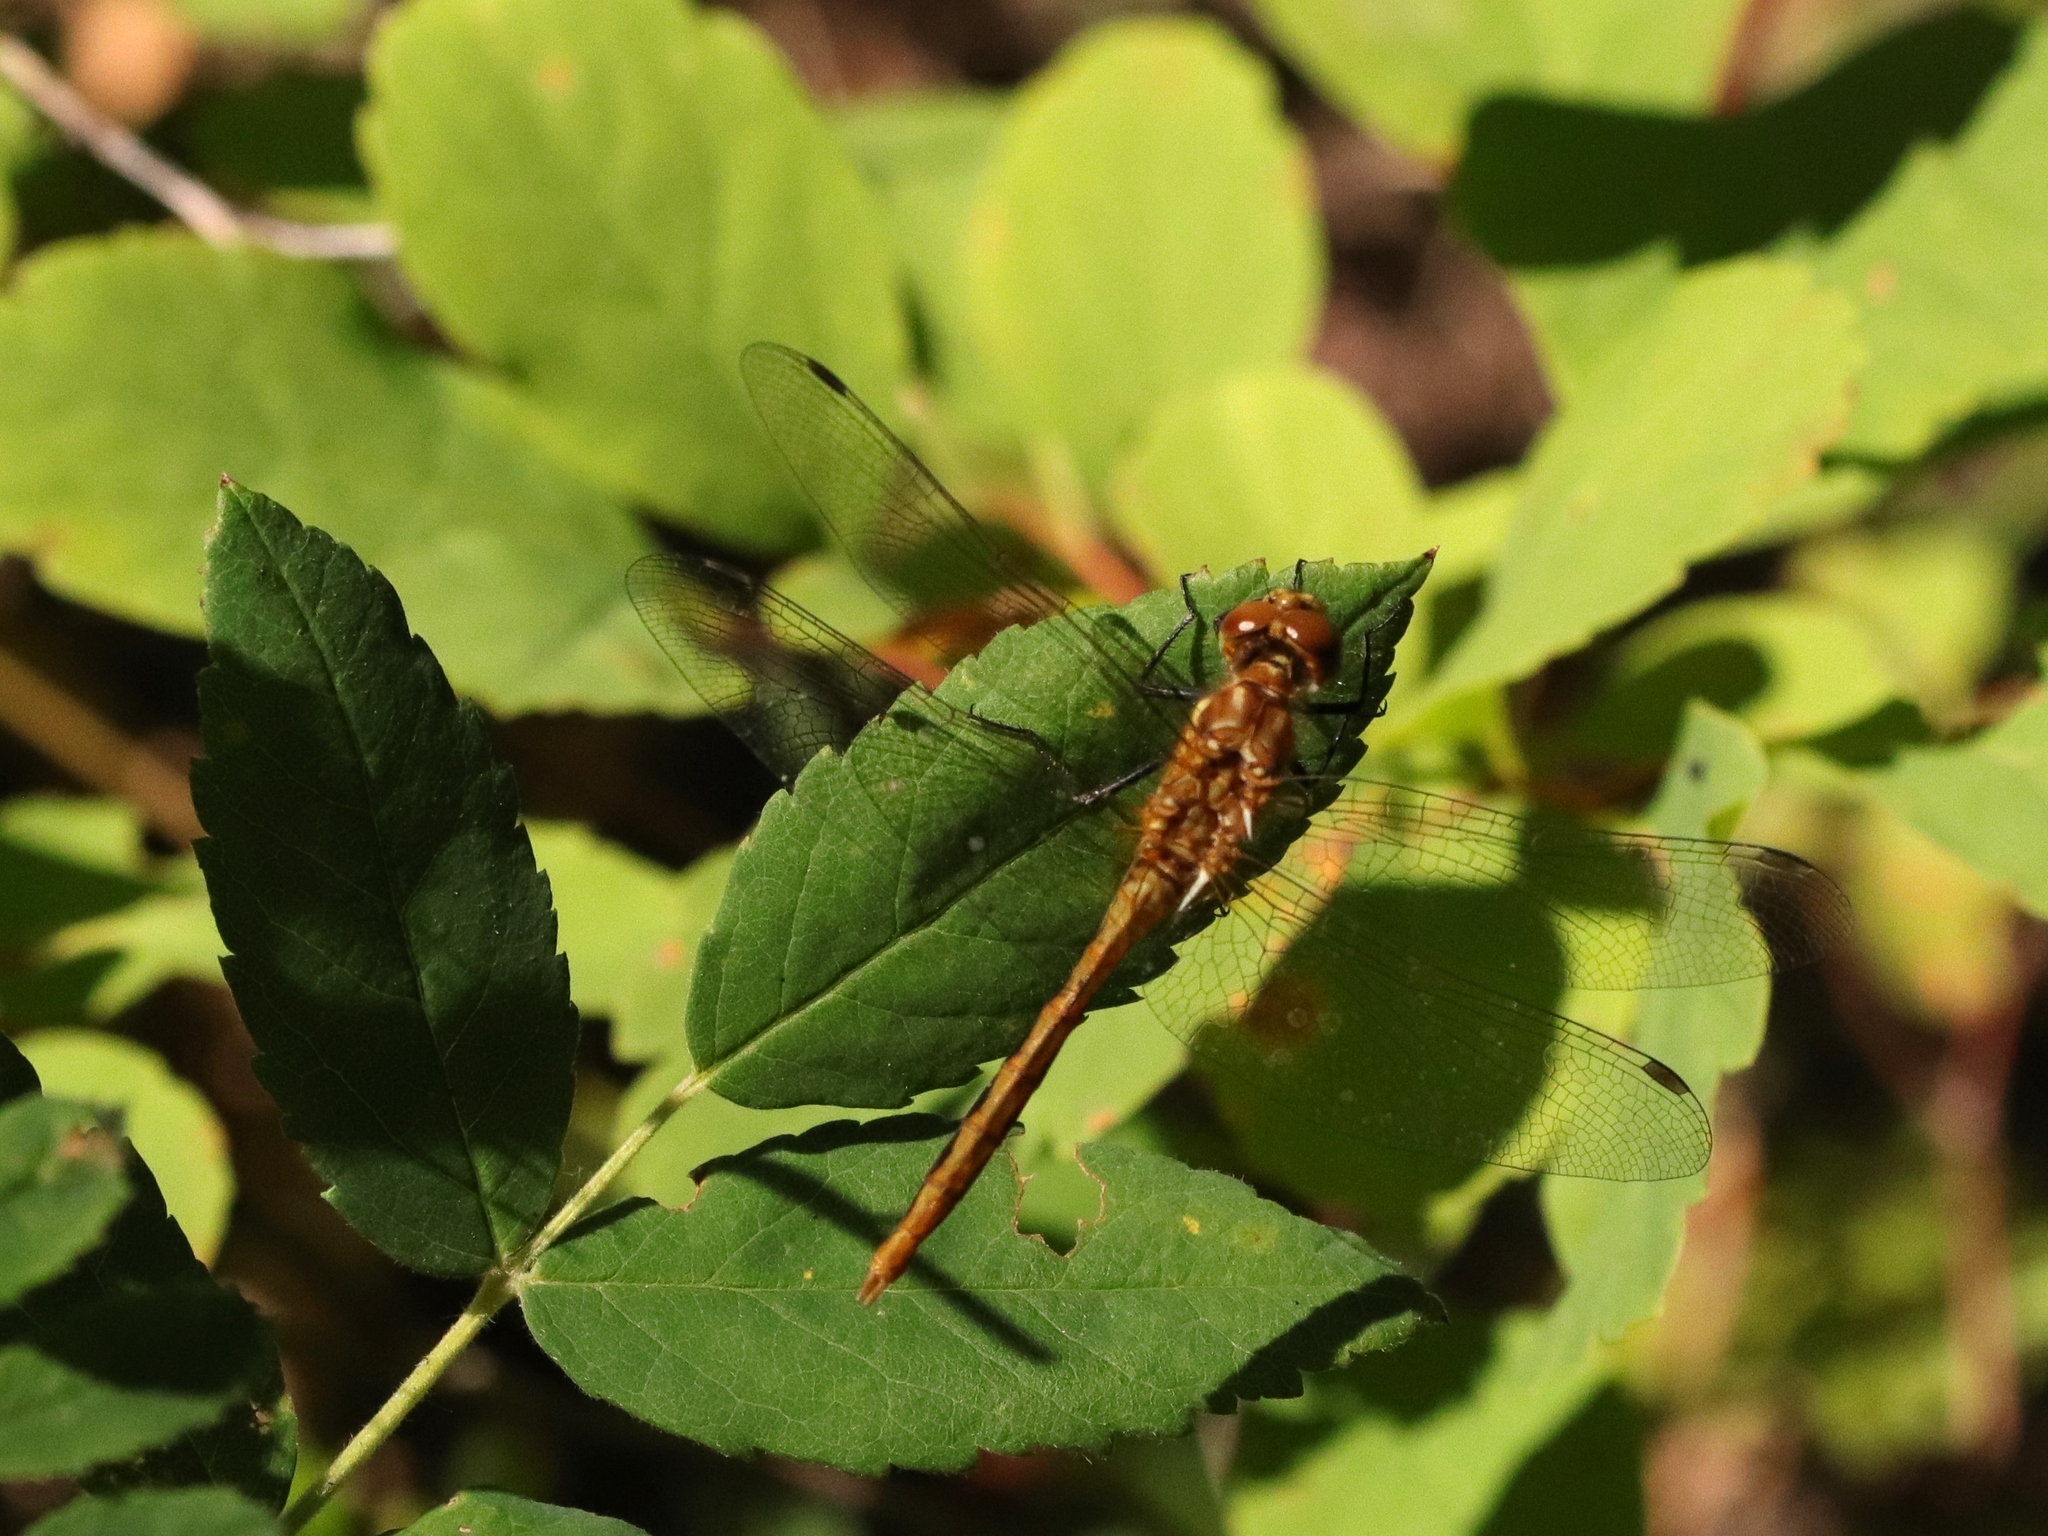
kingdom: Animalia
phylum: Arthropoda
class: Insecta
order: Odonata
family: Libellulidae
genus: Sympetrum
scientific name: Sympetrum pallipes
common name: Striped meadowhawk
